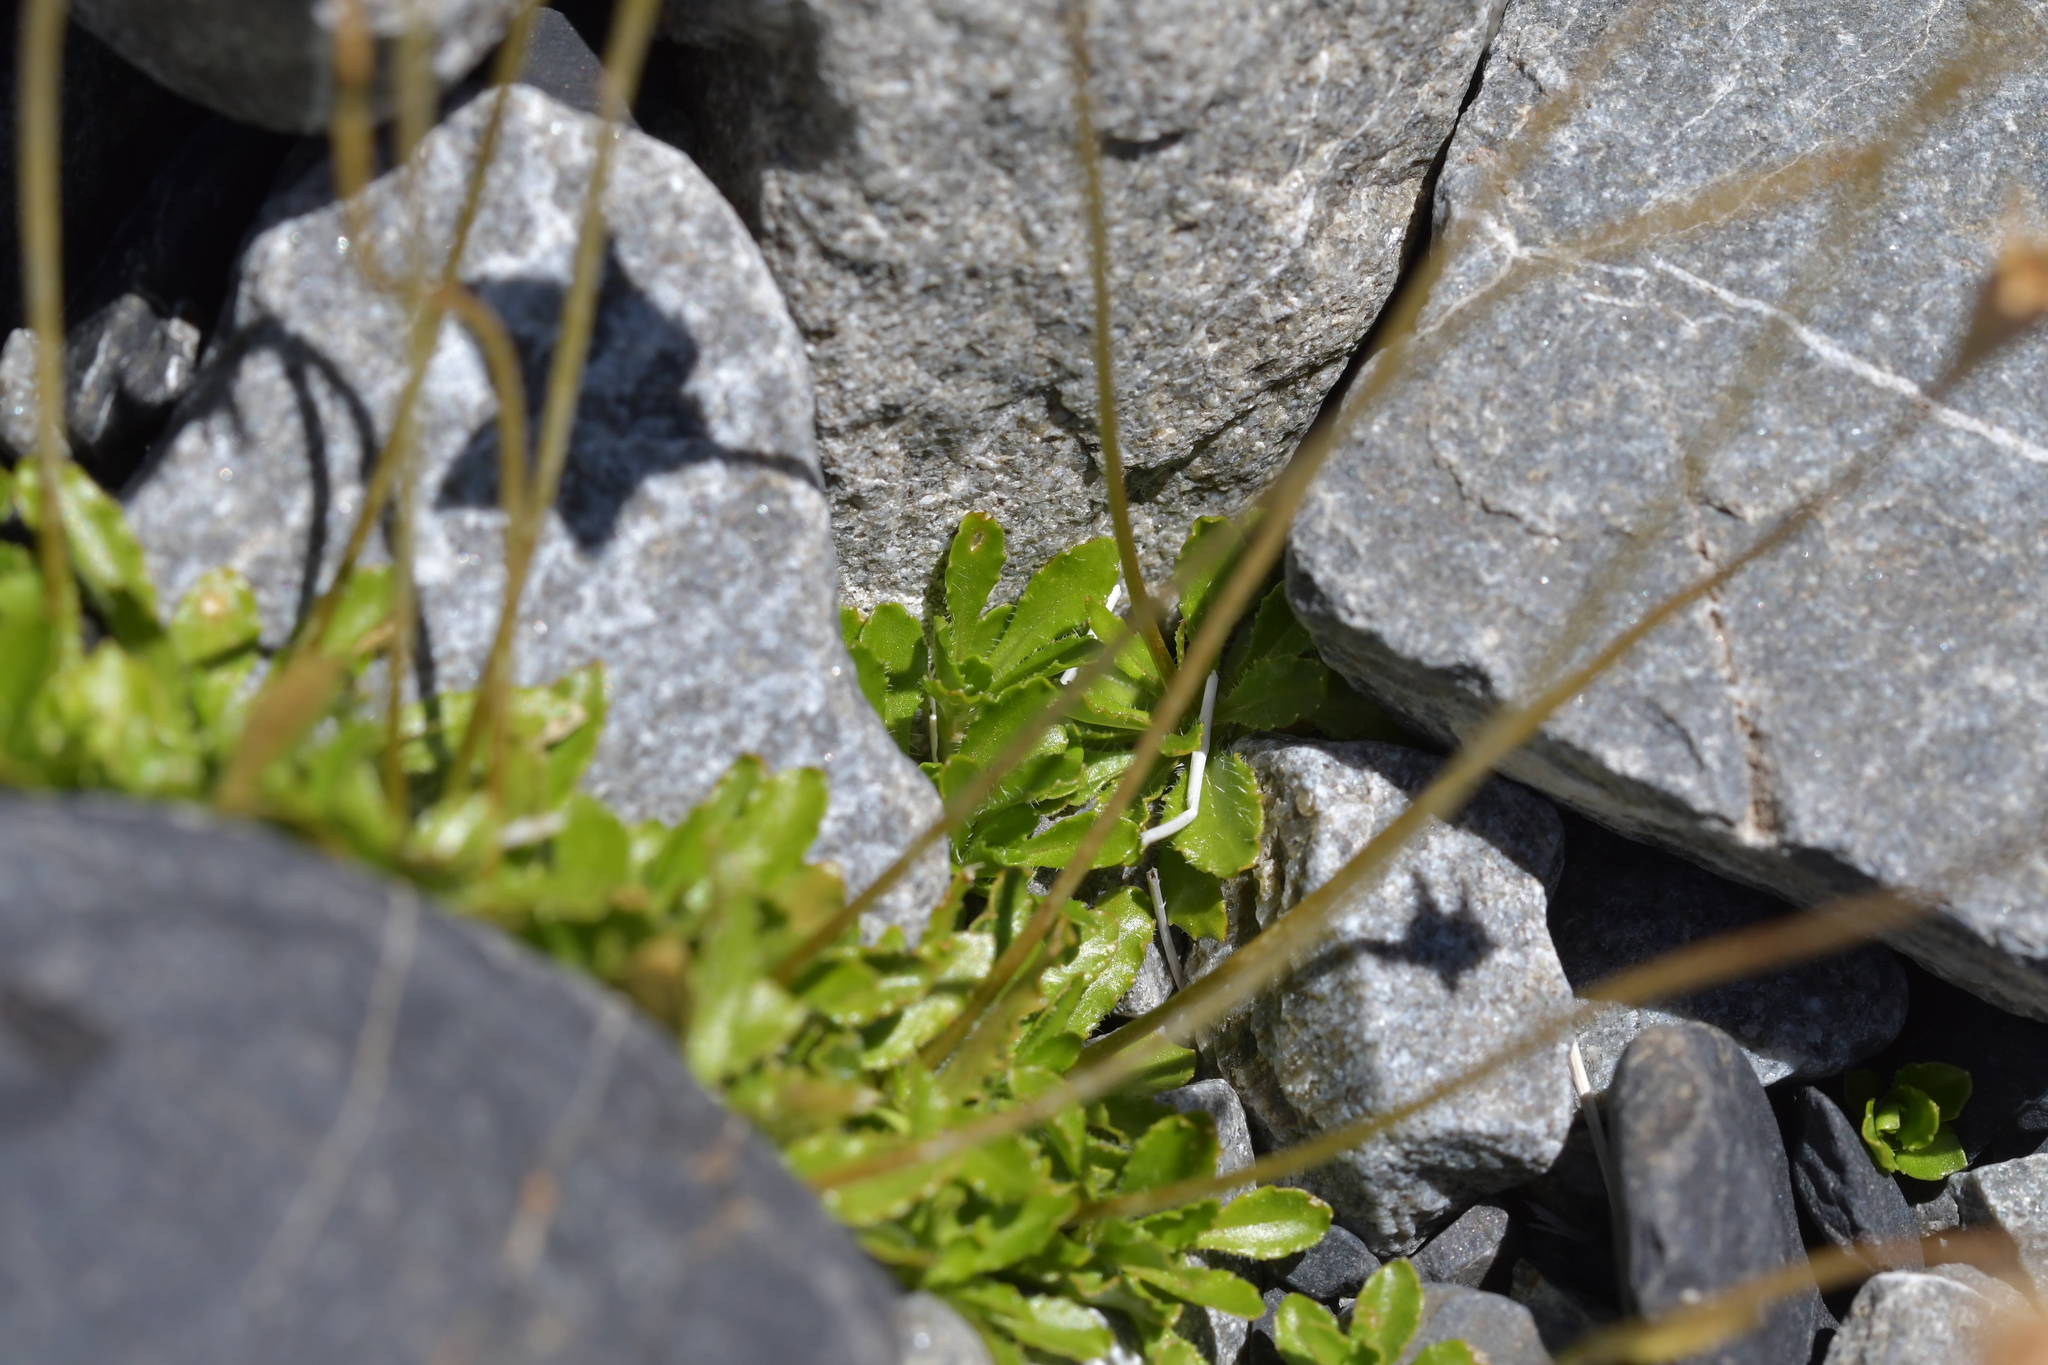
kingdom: Plantae
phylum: Tracheophyta
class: Magnoliopsida
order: Asterales
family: Campanulaceae
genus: Wahlenbergia
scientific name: Wahlenbergia albomarginata
